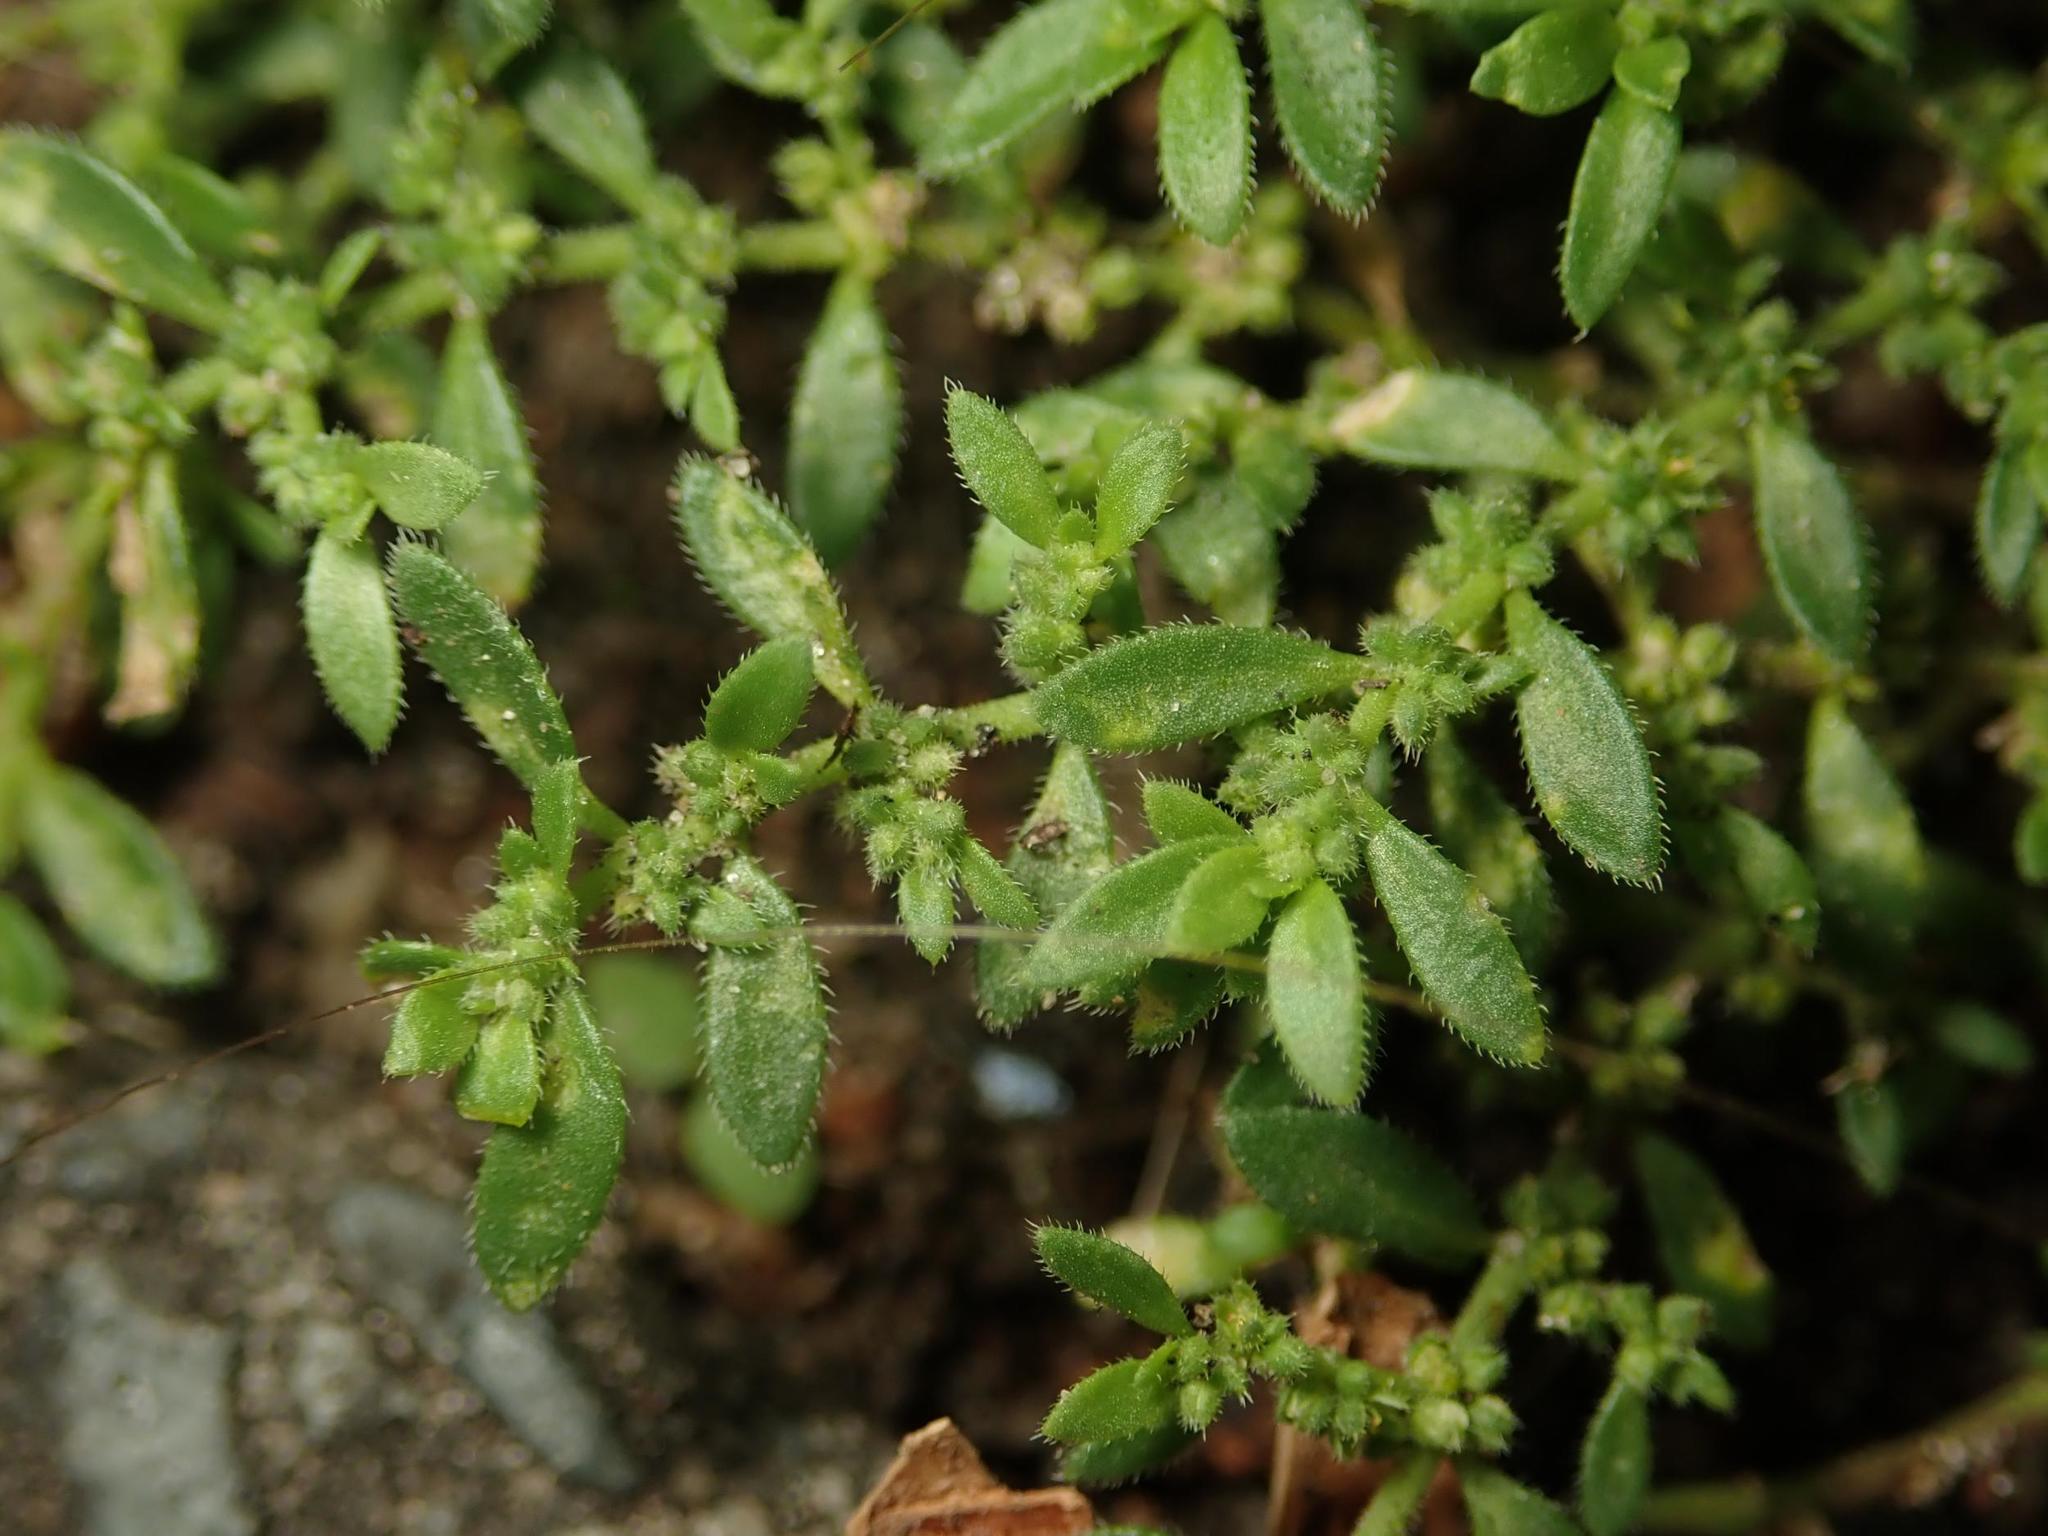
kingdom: Plantae
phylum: Tracheophyta
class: Magnoliopsida
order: Caryophyllales
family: Caryophyllaceae
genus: Herniaria
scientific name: Herniaria hirsuta
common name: Hairy rupturewort
